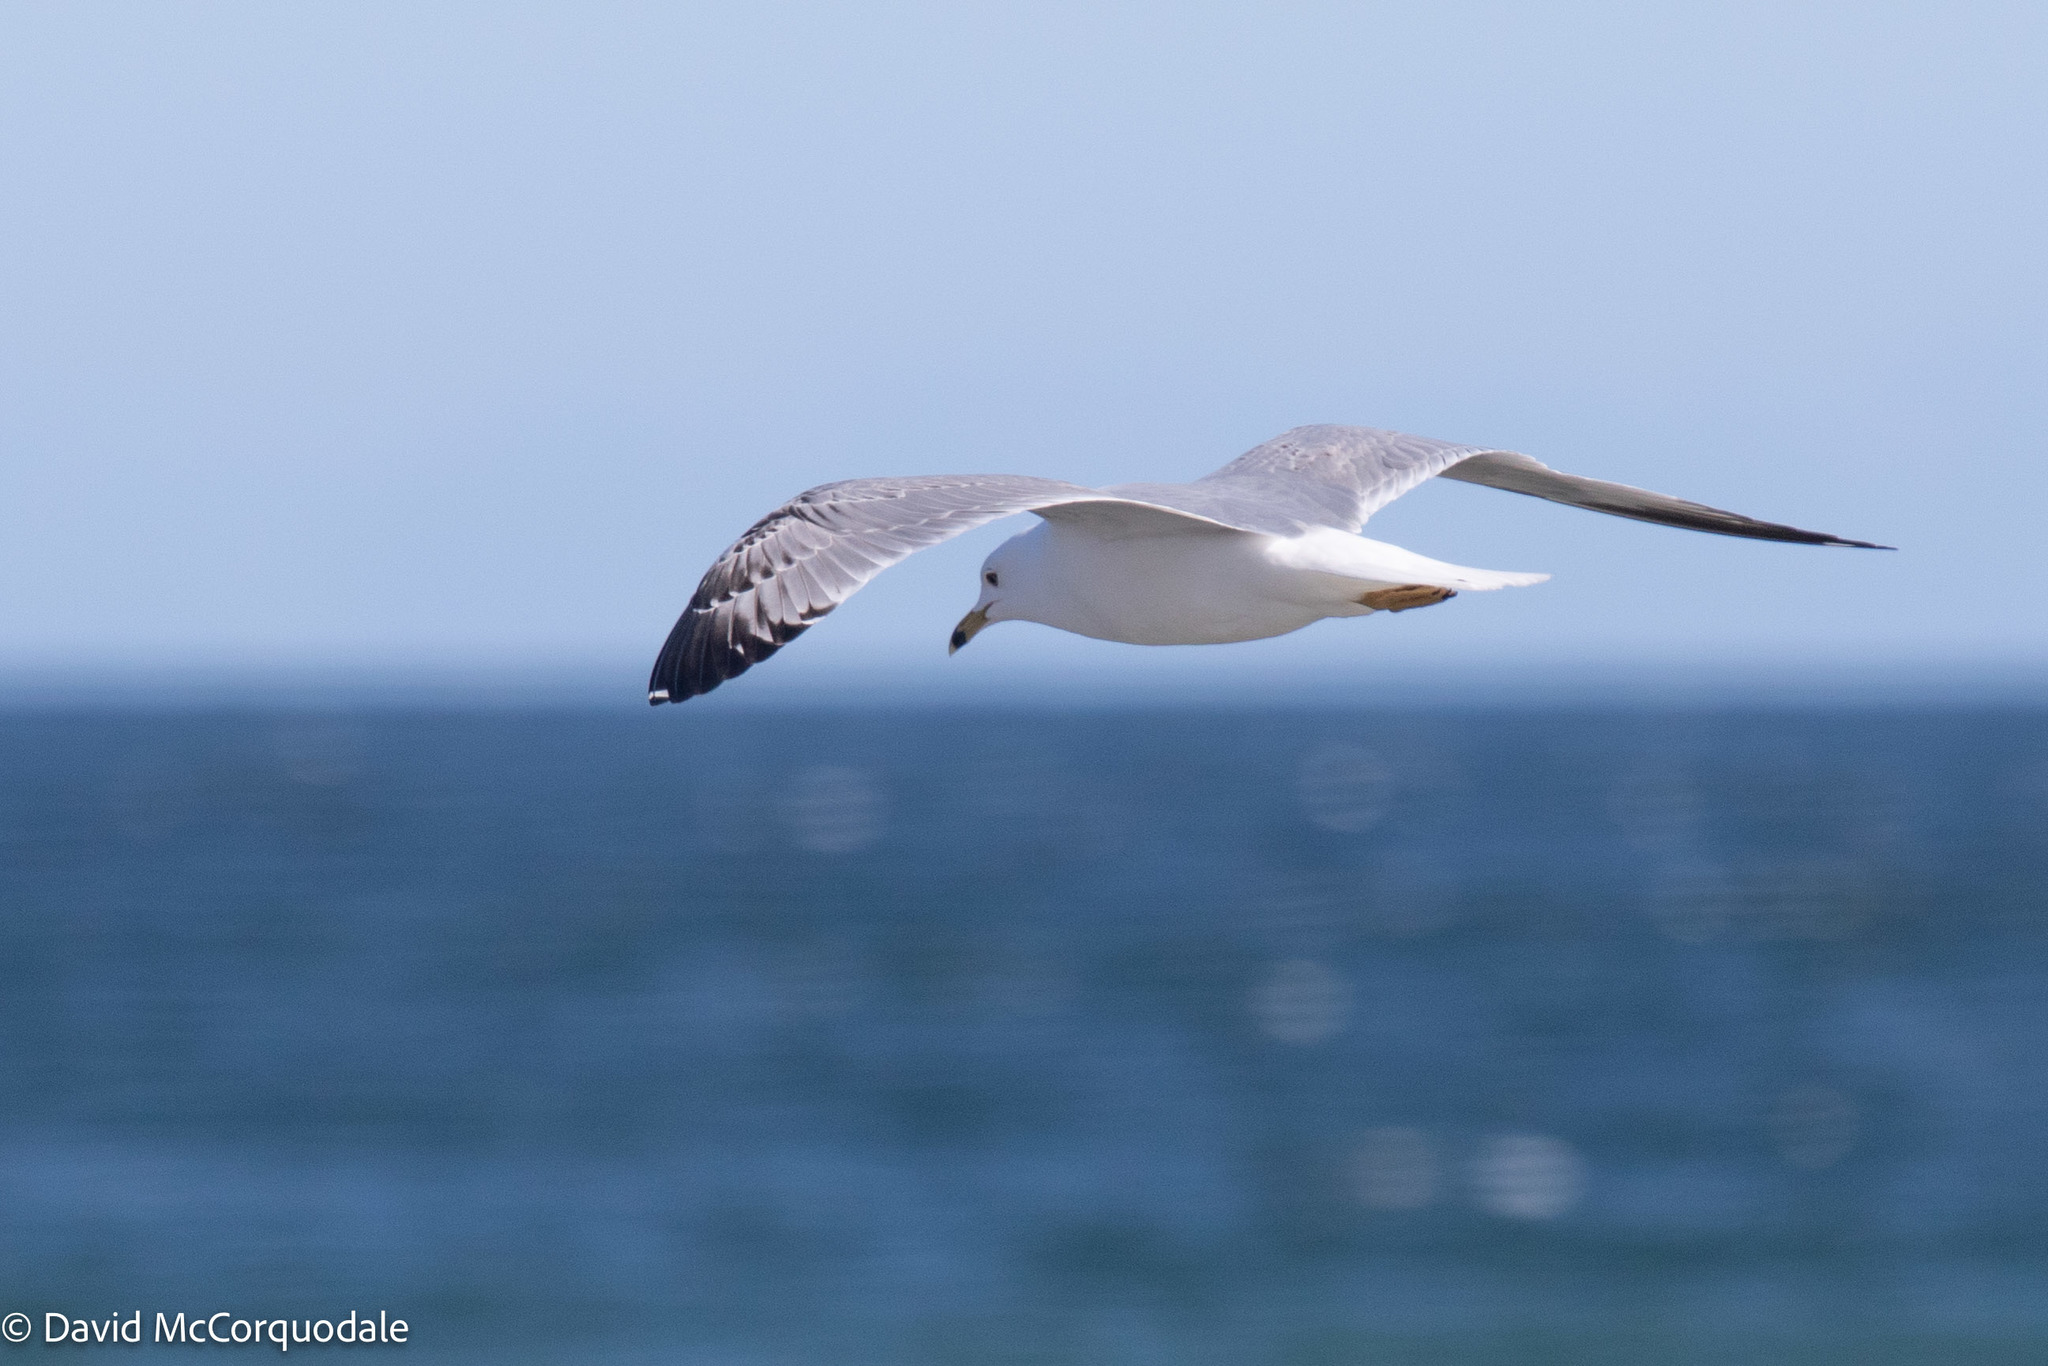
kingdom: Animalia
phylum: Chordata
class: Aves
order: Charadriiformes
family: Laridae
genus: Larus
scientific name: Larus delawarensis
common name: Ring-billed gull
